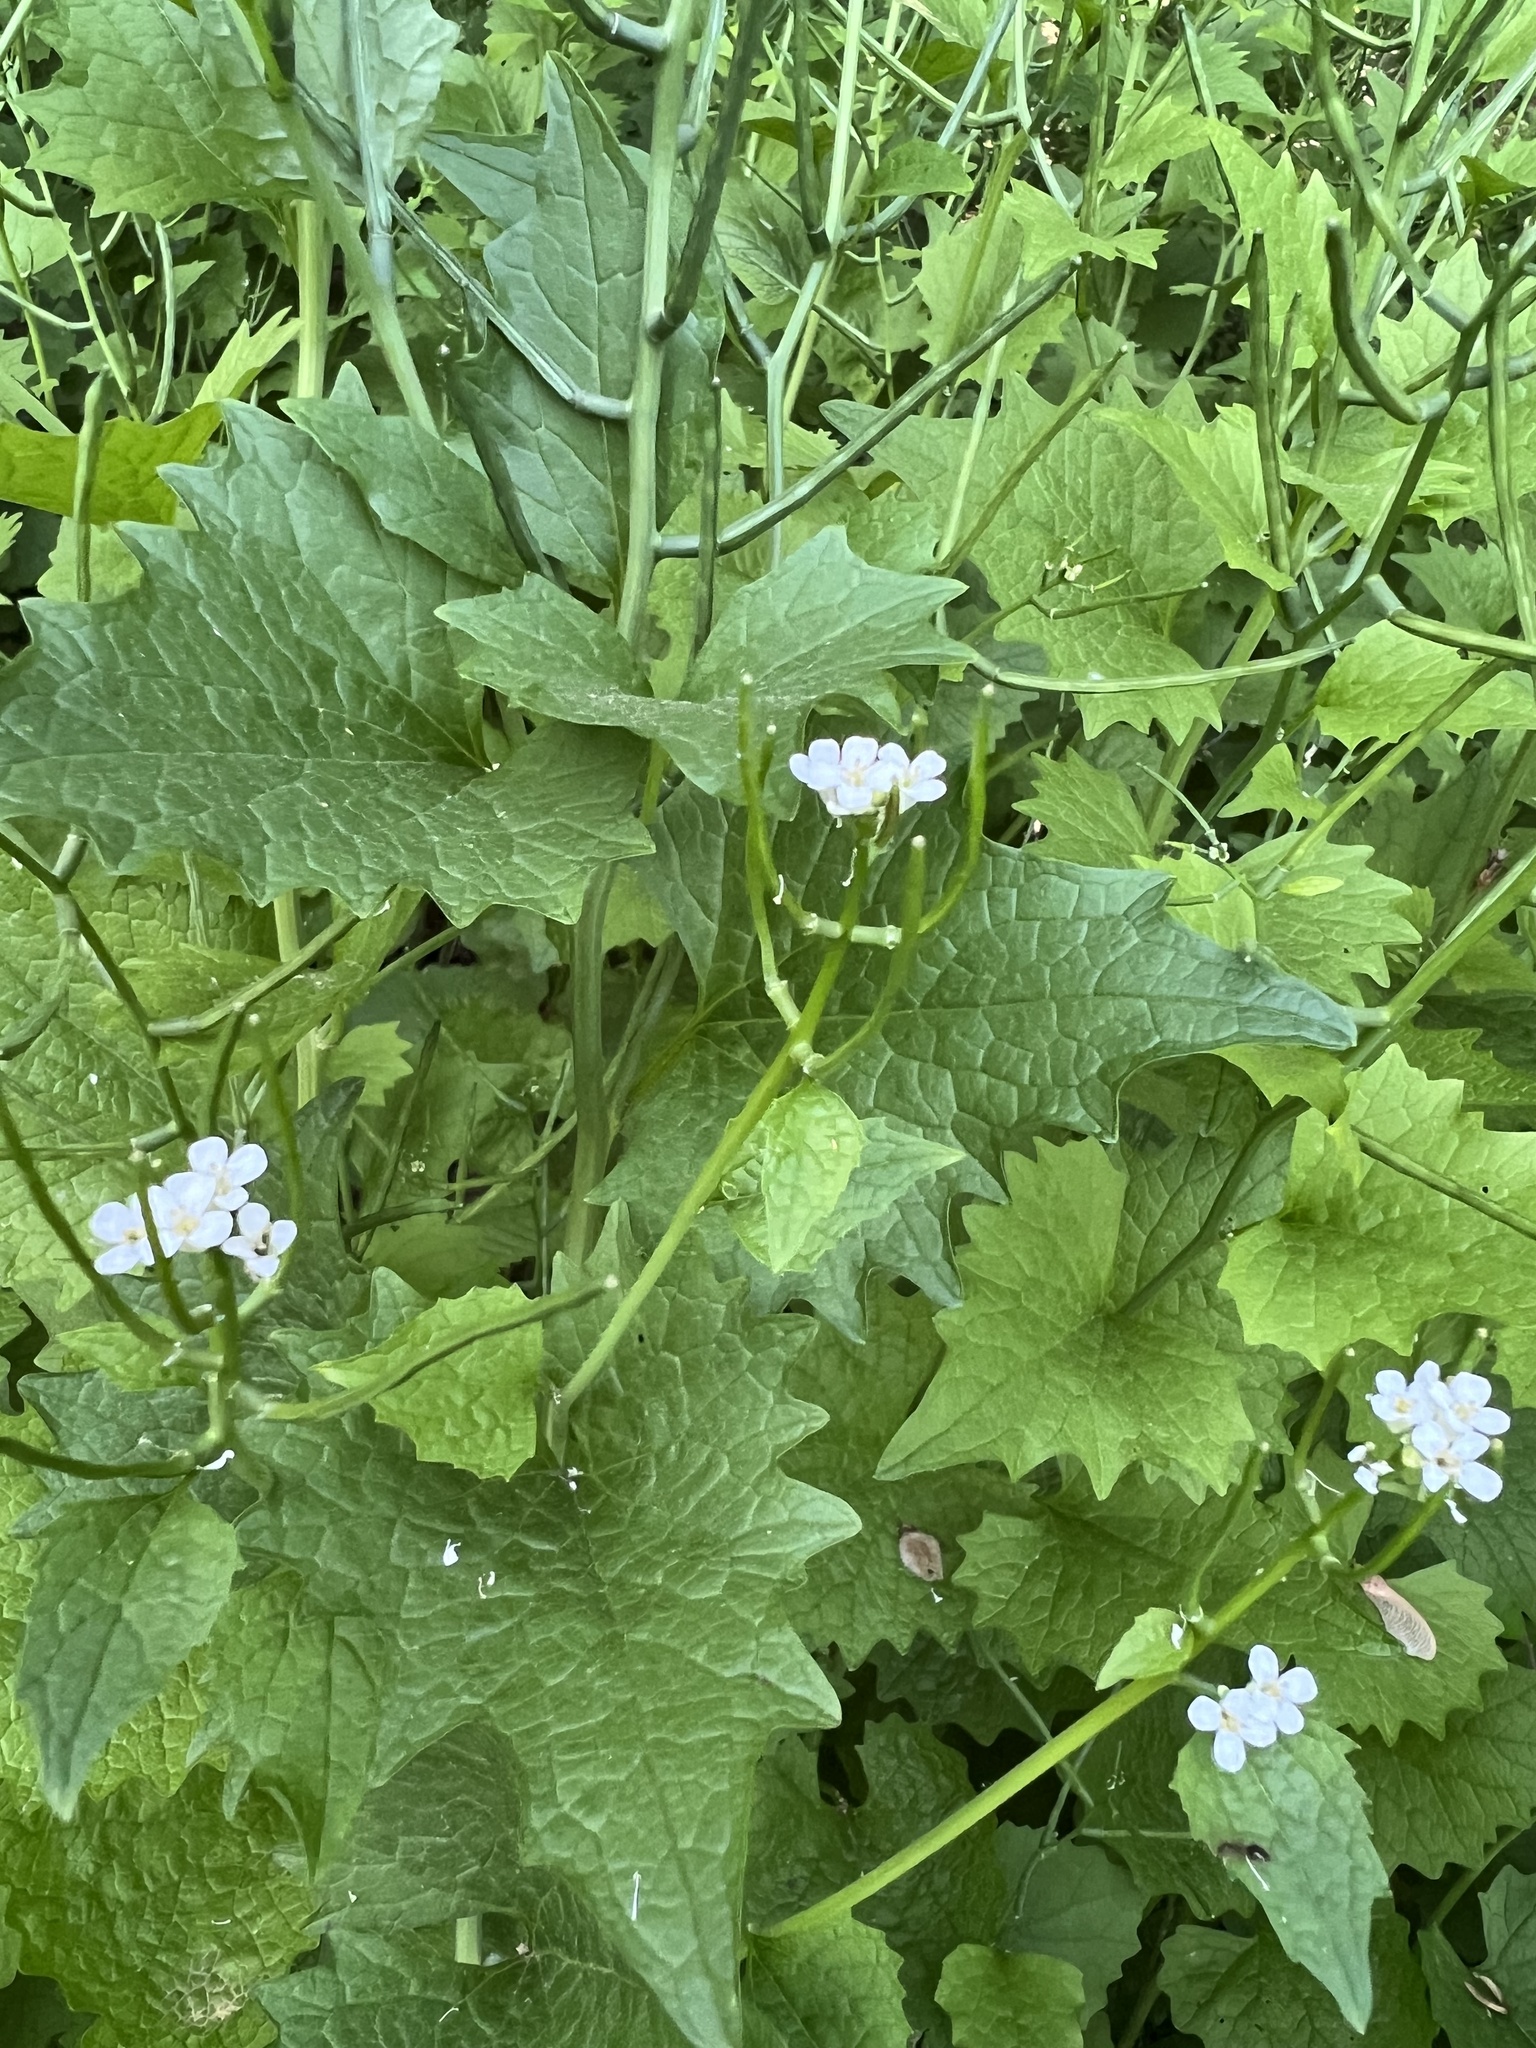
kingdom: Plantae
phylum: Tracheophyta
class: Magnoliopsida
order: Brassicales
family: Brassicaceae
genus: Alliaria
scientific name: Alliaria petiolata
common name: Garlic mustard
